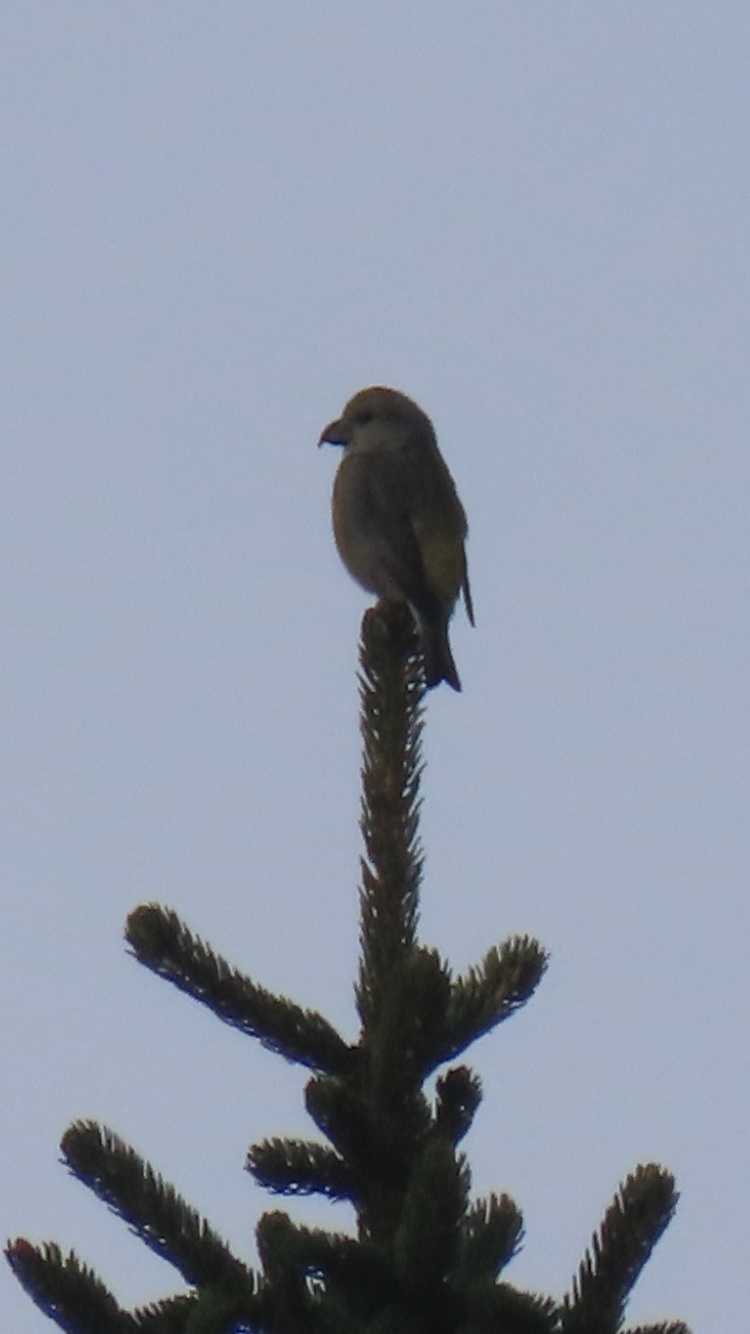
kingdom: Animalia
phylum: Chordata
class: Aves
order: Passeriformes
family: Fringillidae
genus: Loxia
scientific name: Loxia curvirostra
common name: Red crossbill
